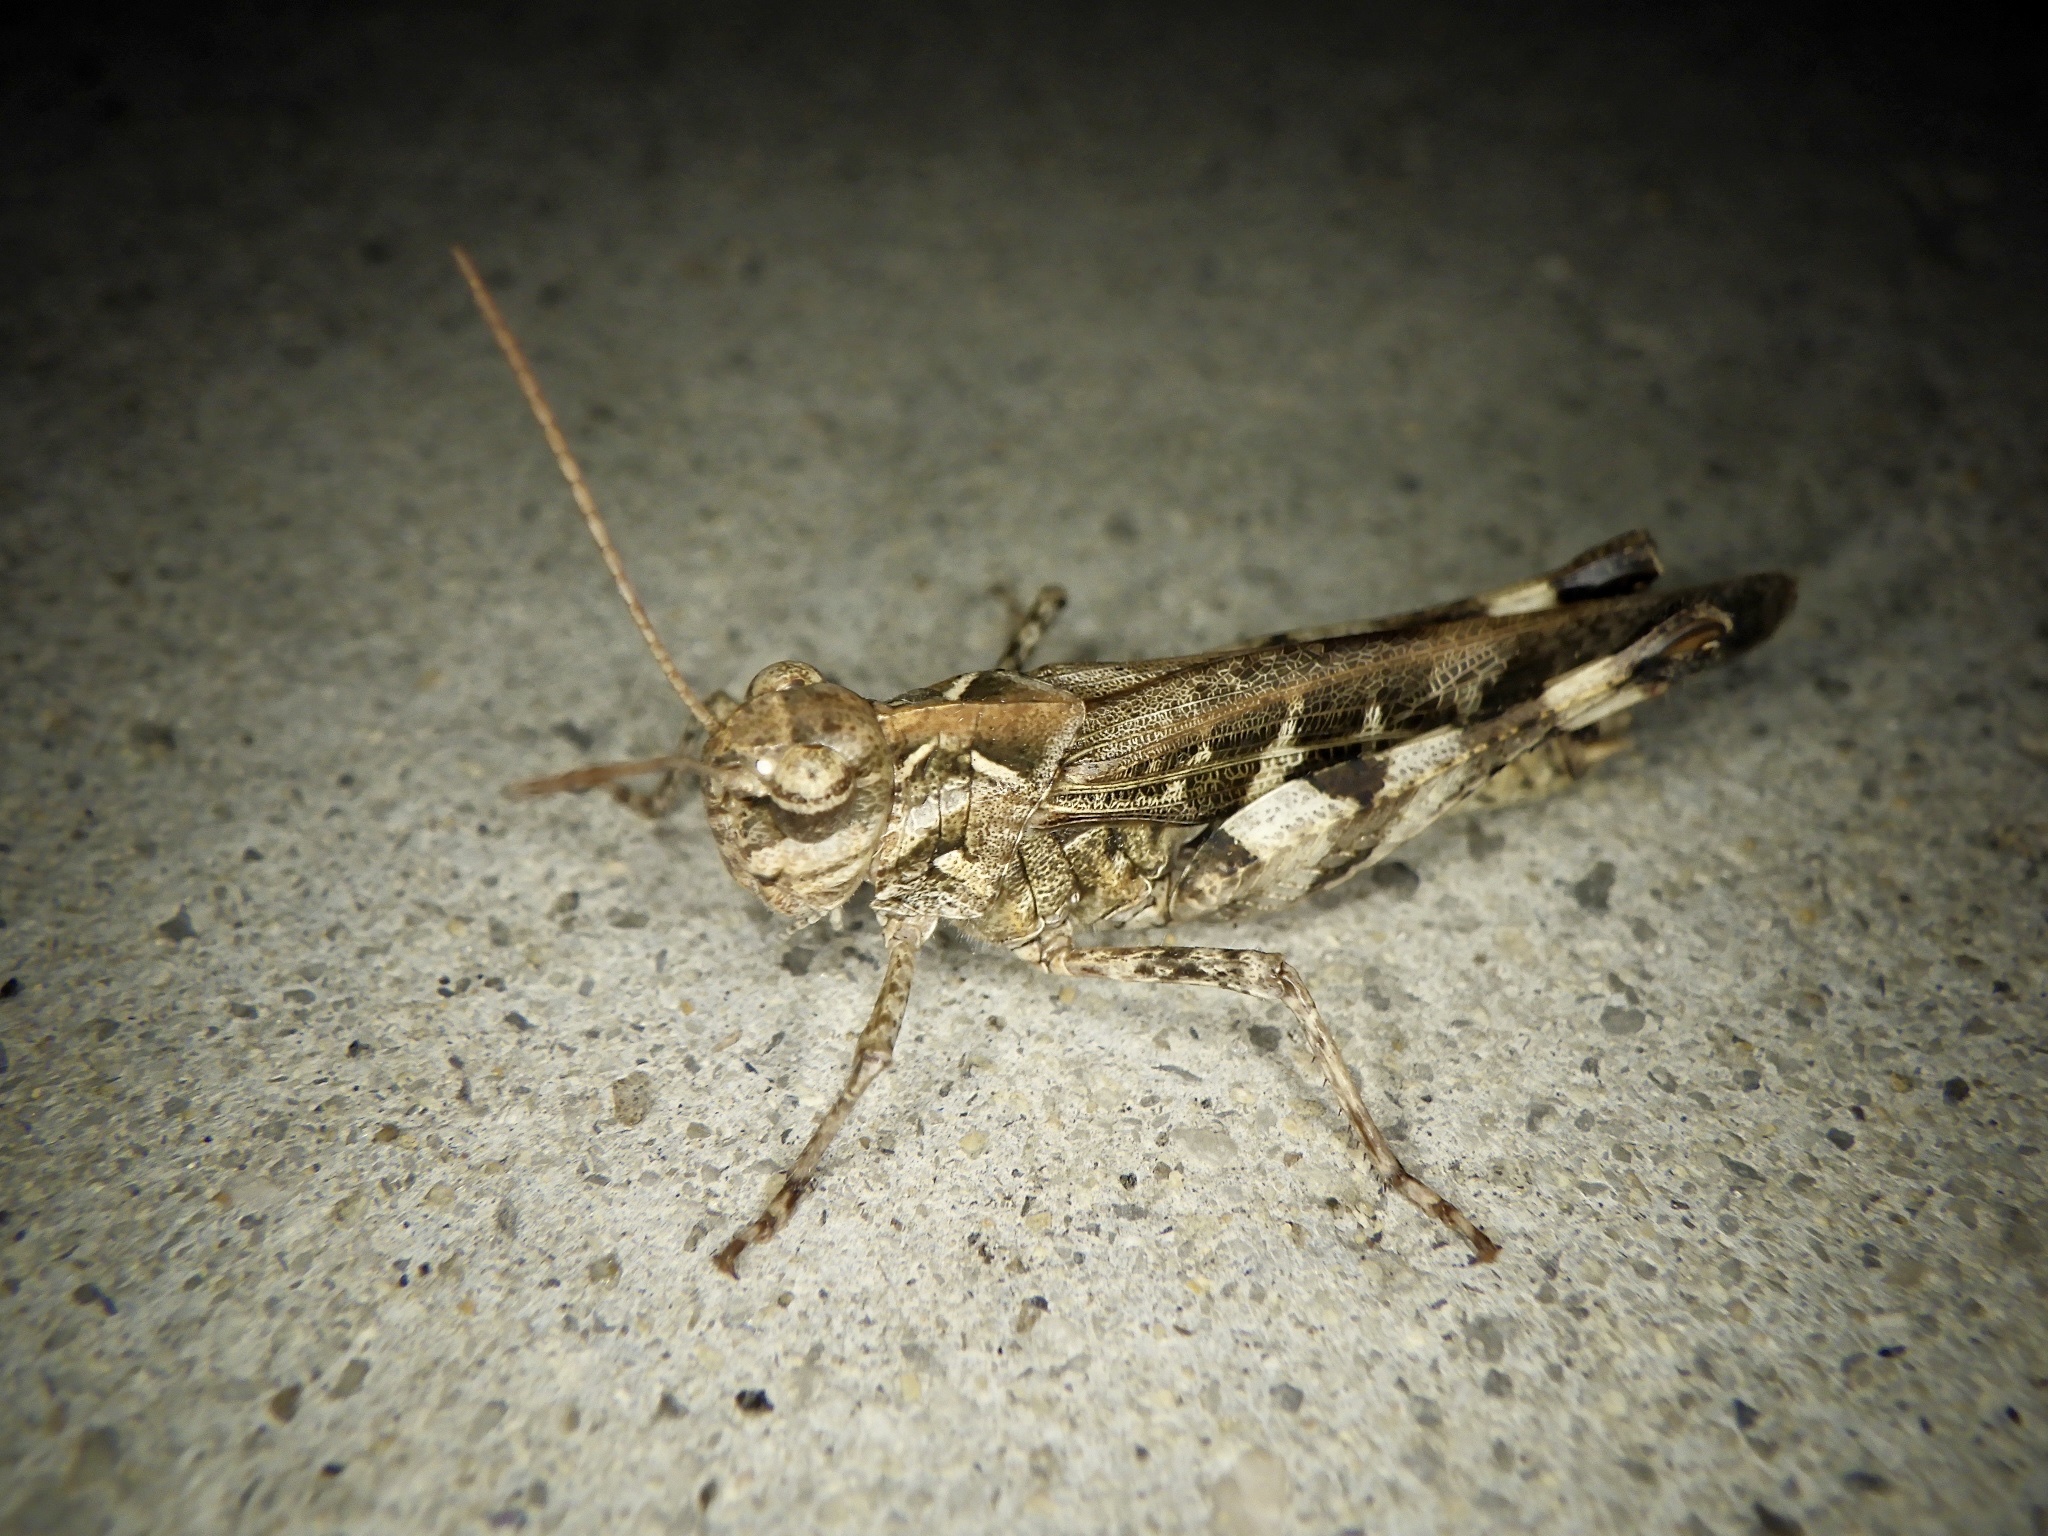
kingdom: Animalia
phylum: Arthropoda
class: Insecta
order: Orthoptera
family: Acrididae
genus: Oedaleus
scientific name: Oedaleus infernalis
